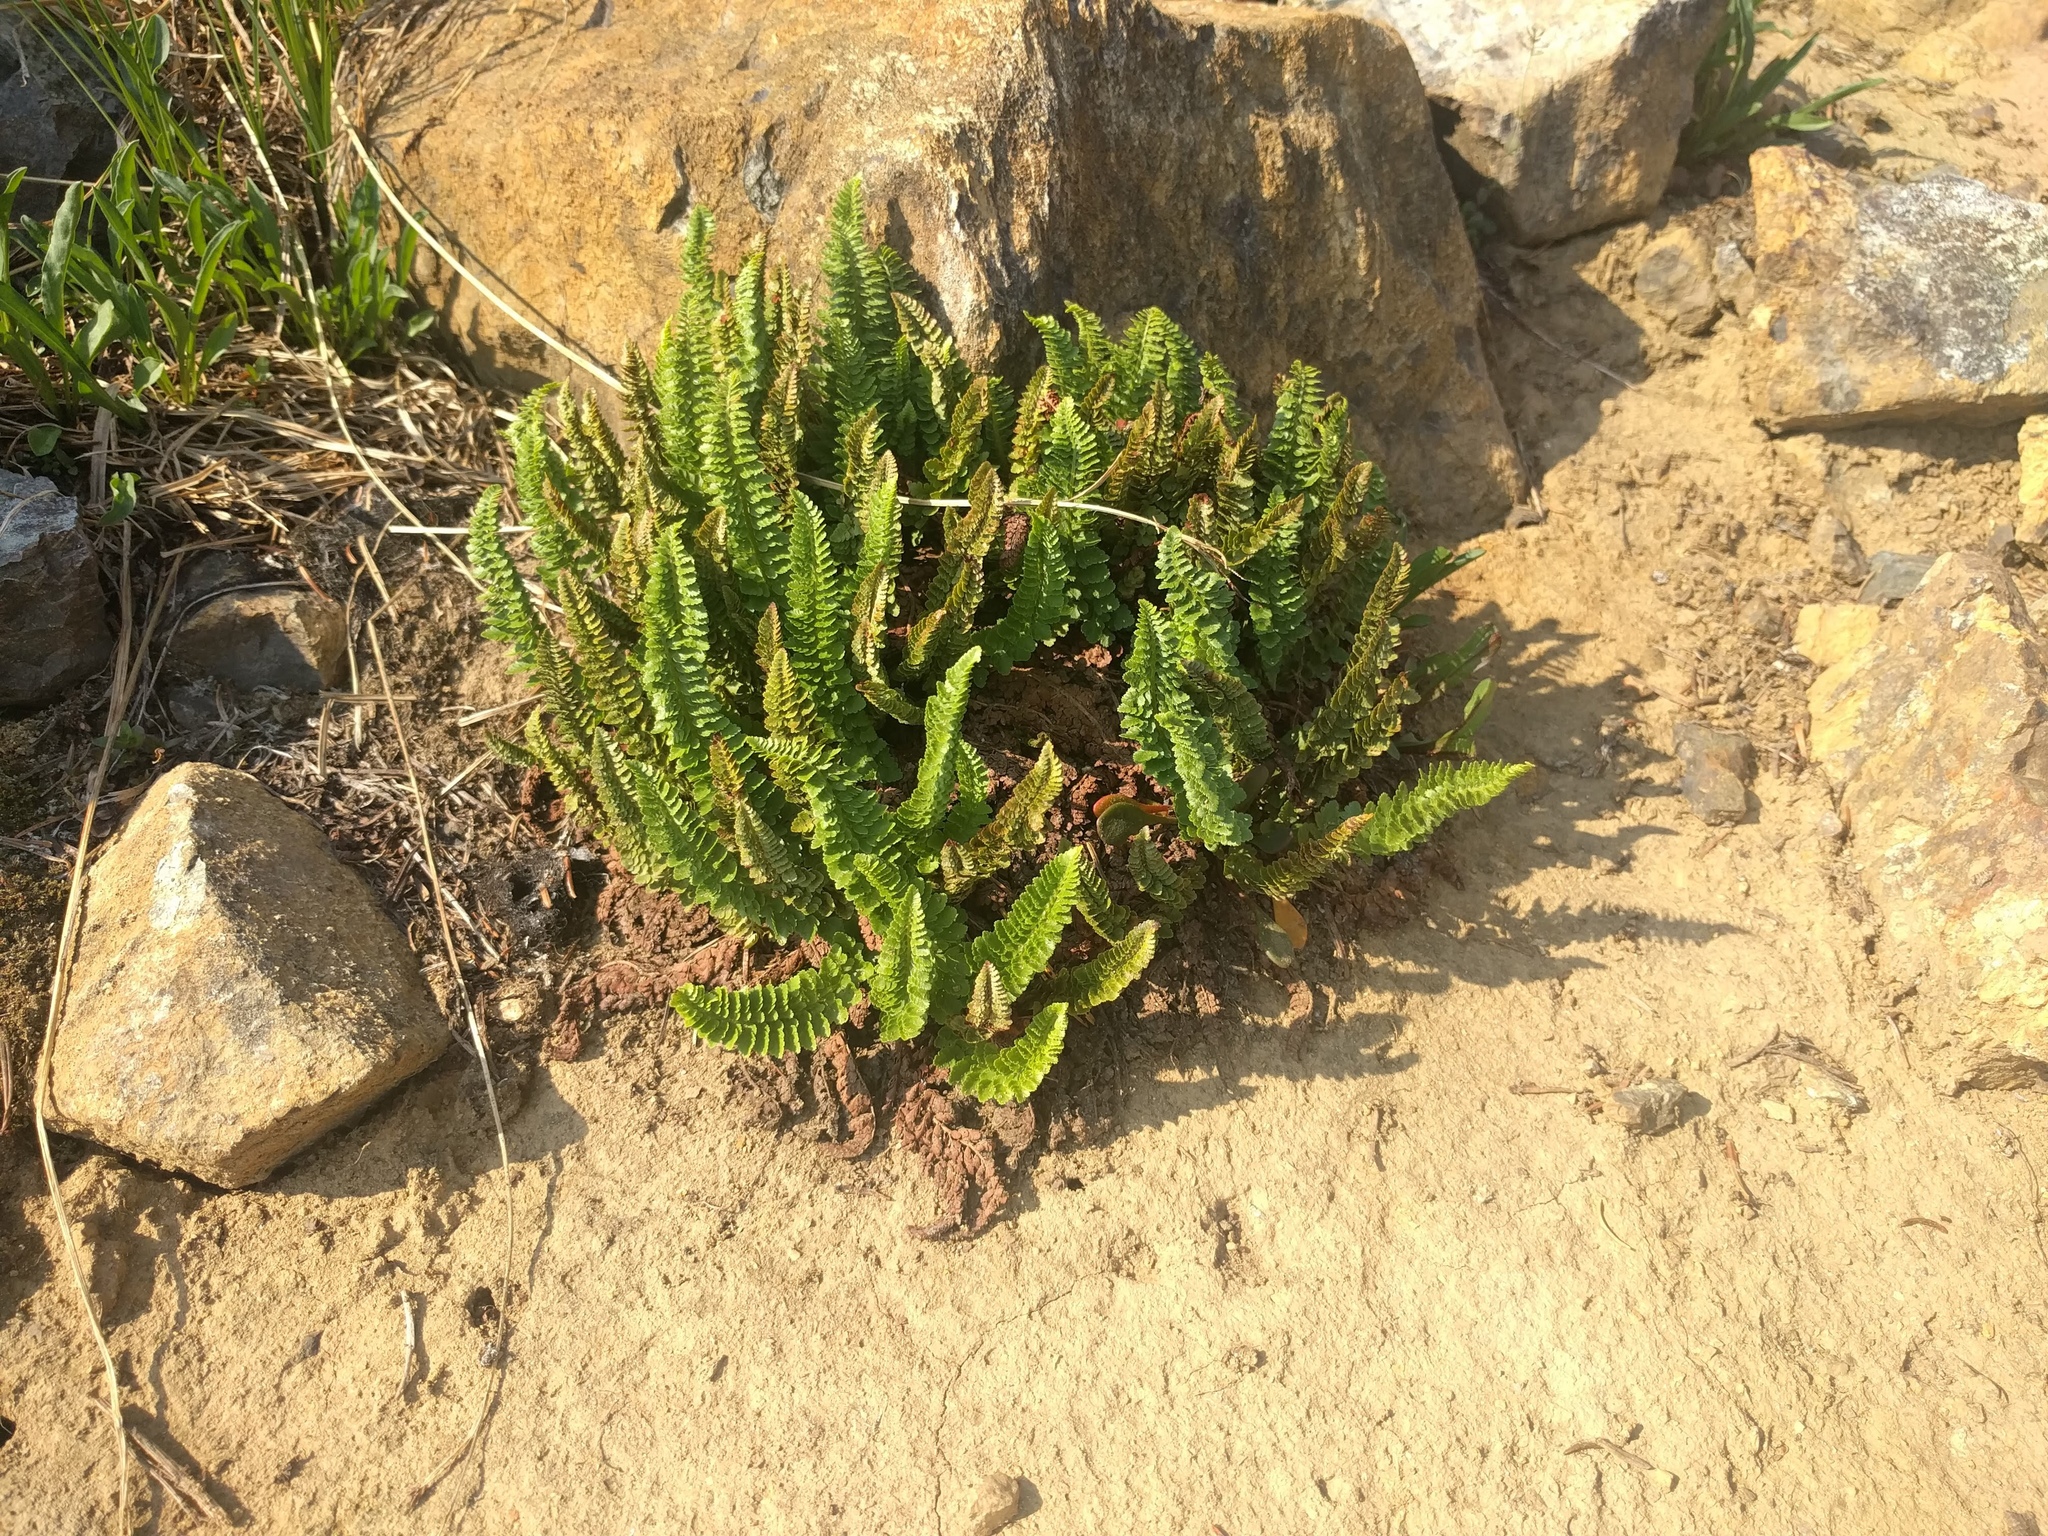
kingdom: Plantae
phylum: Tracheophyta
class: Polypodiopsida
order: Polypodiales
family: Dryopteridaceae
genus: Polystichum
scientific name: Polystichum lemmonii
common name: Lemmon's holly fern
